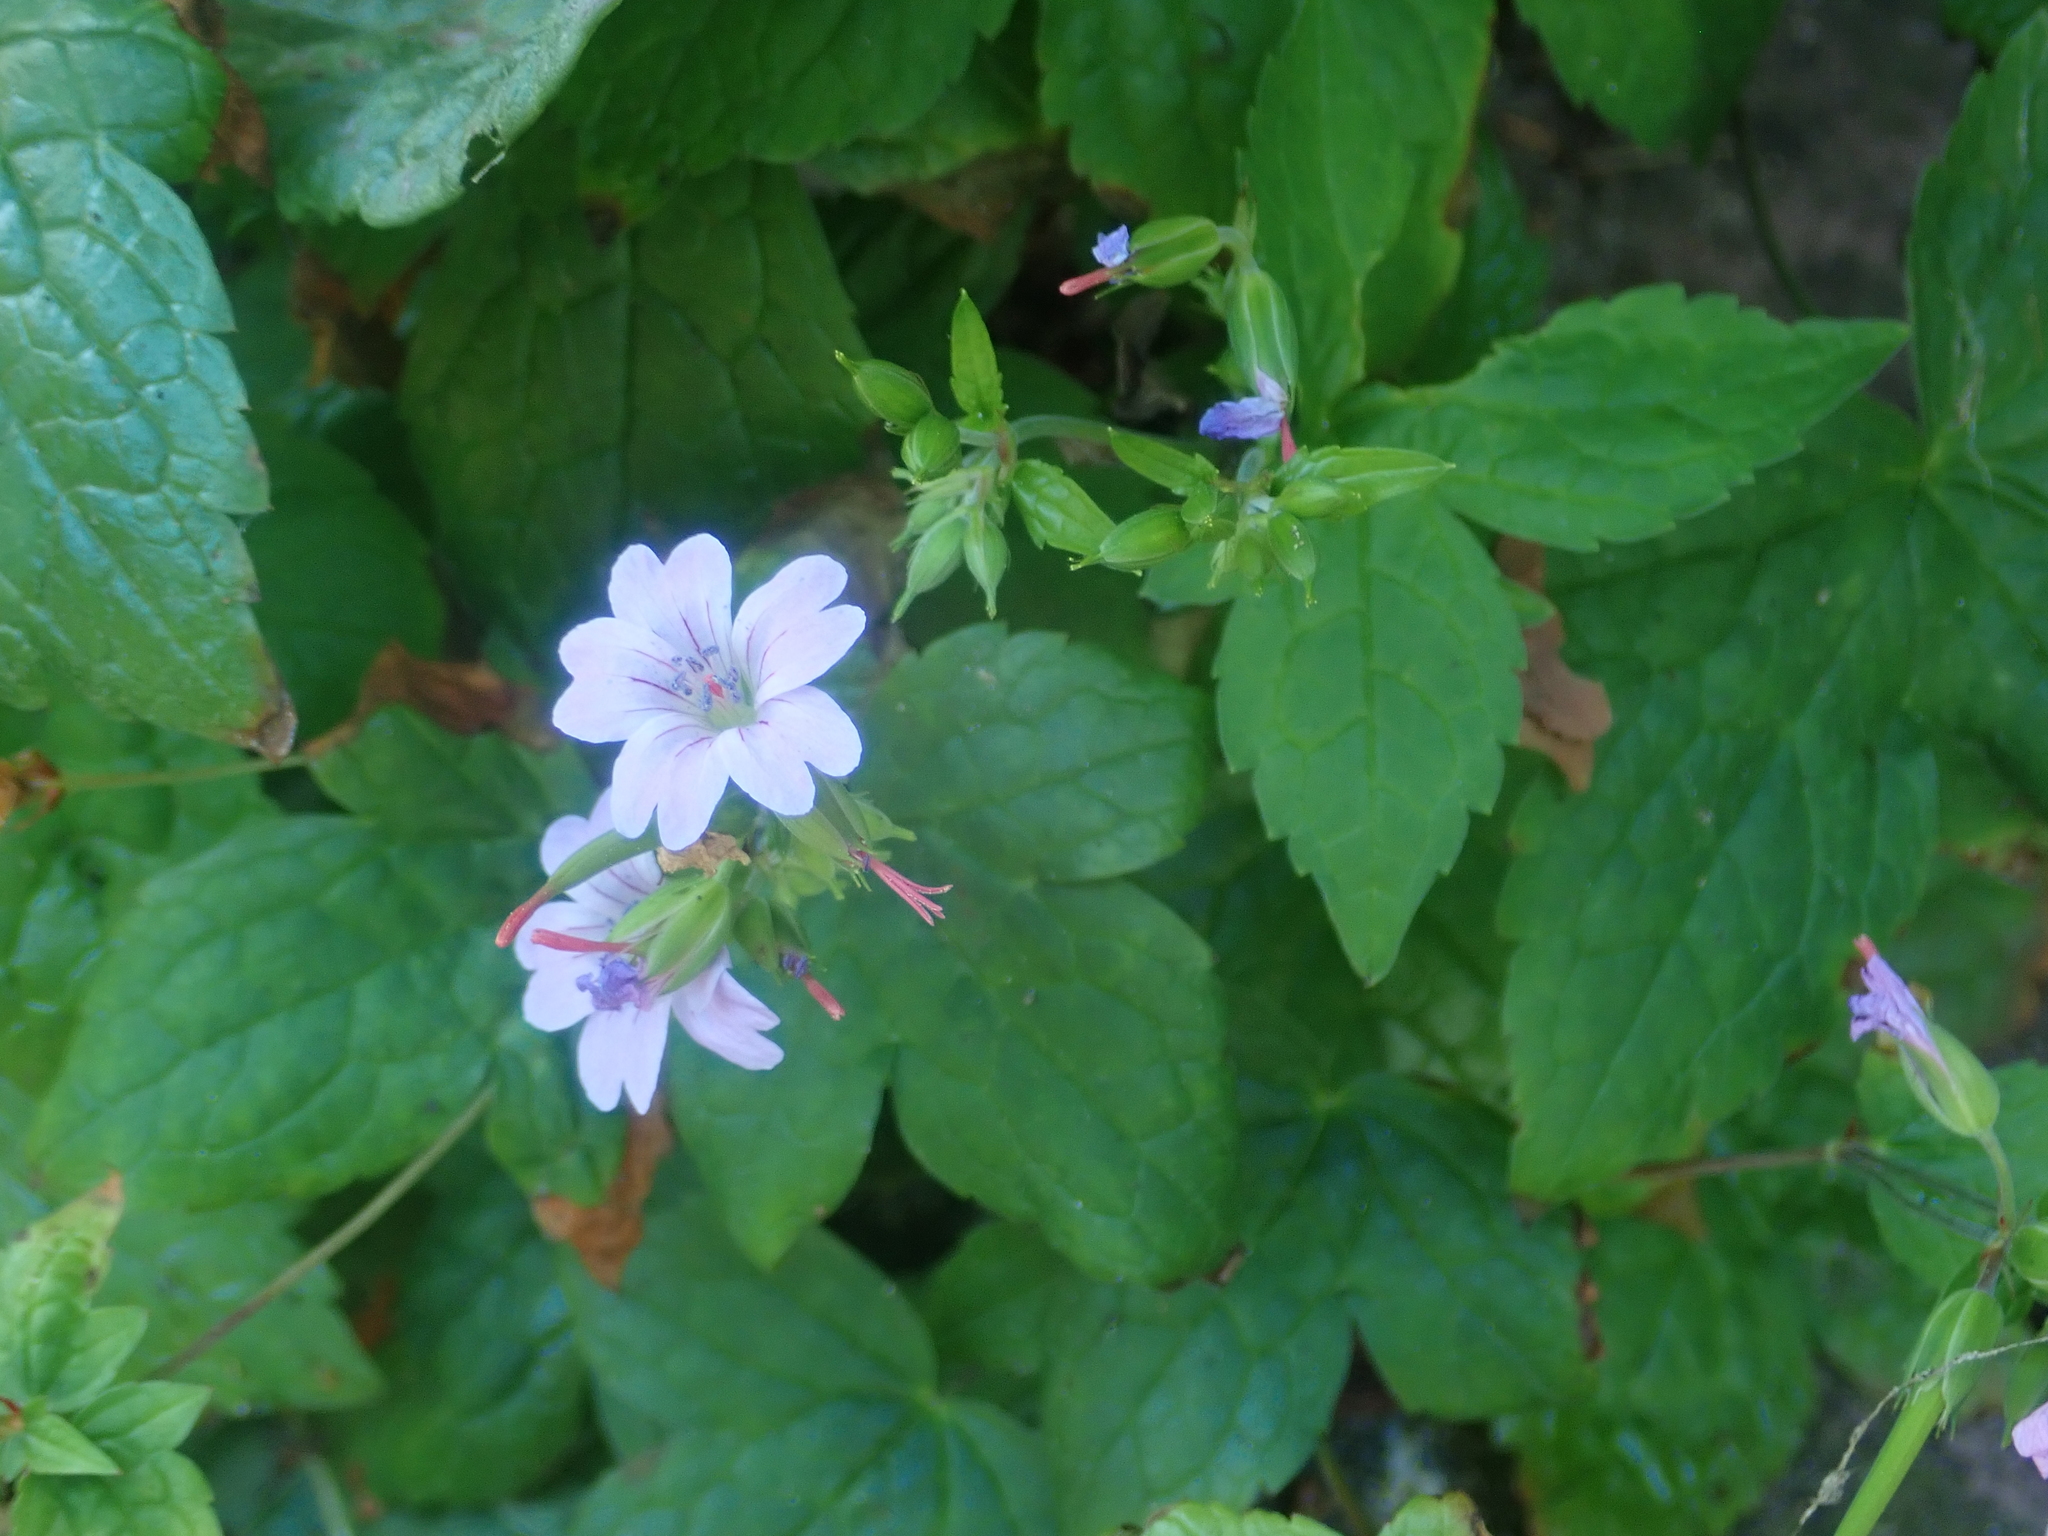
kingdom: Plantae
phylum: Tracheophyta
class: Magnoliopsida
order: Geraniales
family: Geraniaceae
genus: Geranium
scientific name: Geranium nodosum
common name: Knotted crane's-bill
